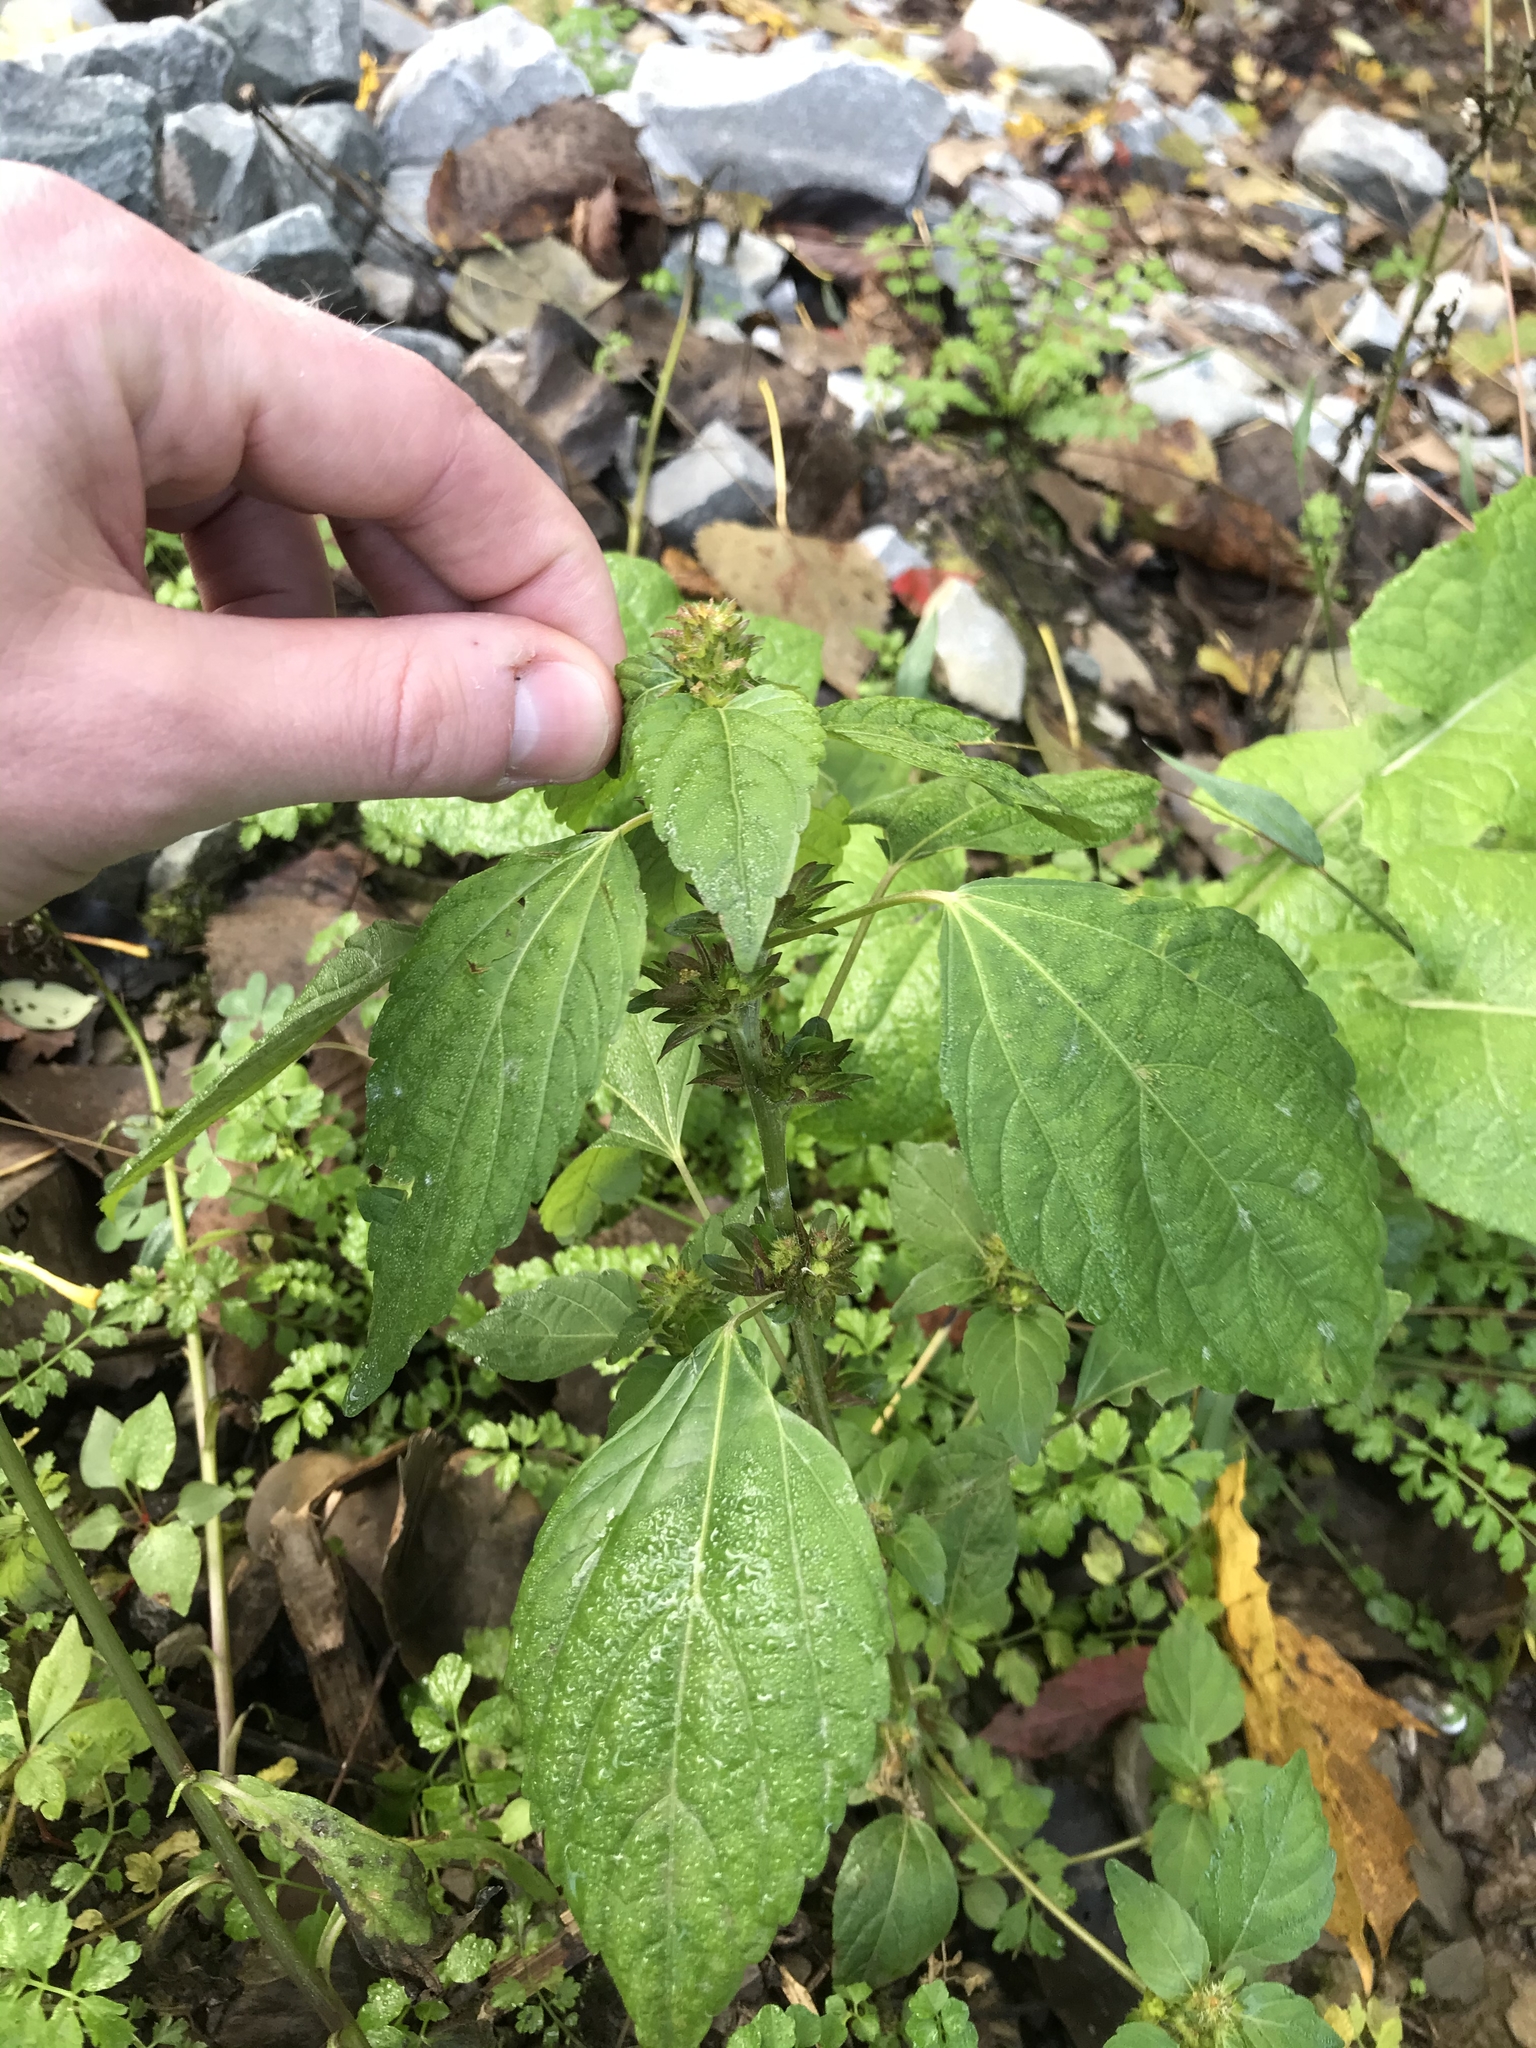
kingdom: Plantae
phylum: Tracheophyta
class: Magnoliopsida
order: Malpighiales
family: Euphorbiaceae
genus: Acalypha
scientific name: Acalypha rhomboidea
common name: Rhombic copperleaf
